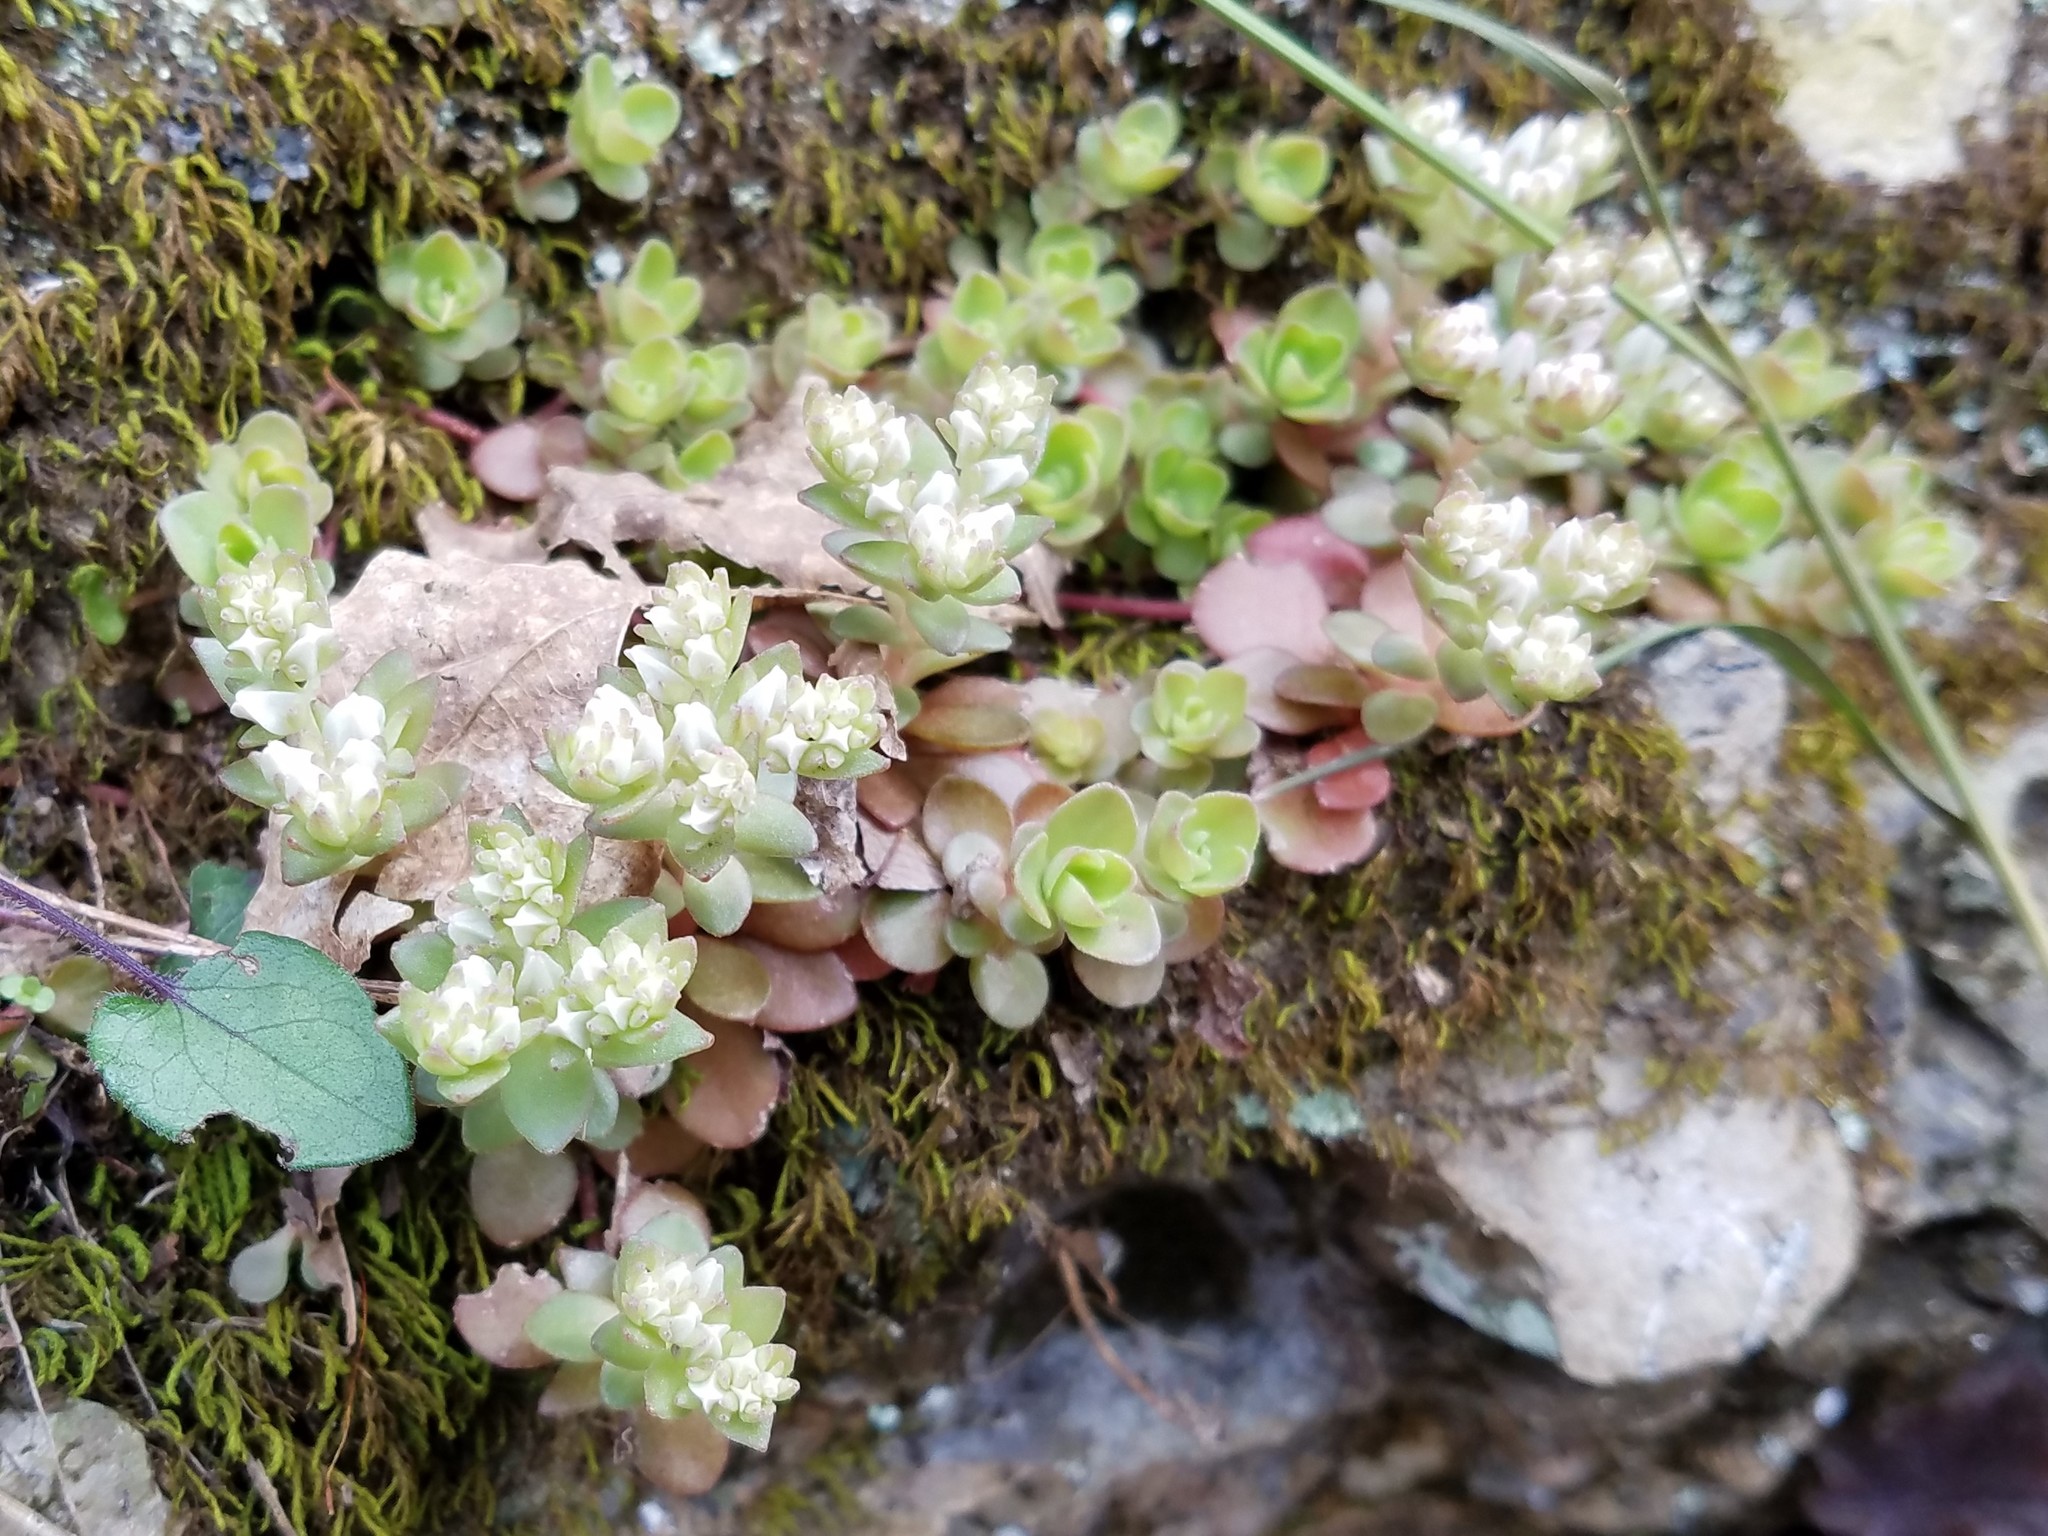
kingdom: Plantae
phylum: Tracheophyta
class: Magnoliopsida
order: Saxifragales
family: Crassulaceae
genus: Sedum
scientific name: Sedum ternatum
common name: Wild stonecrop
